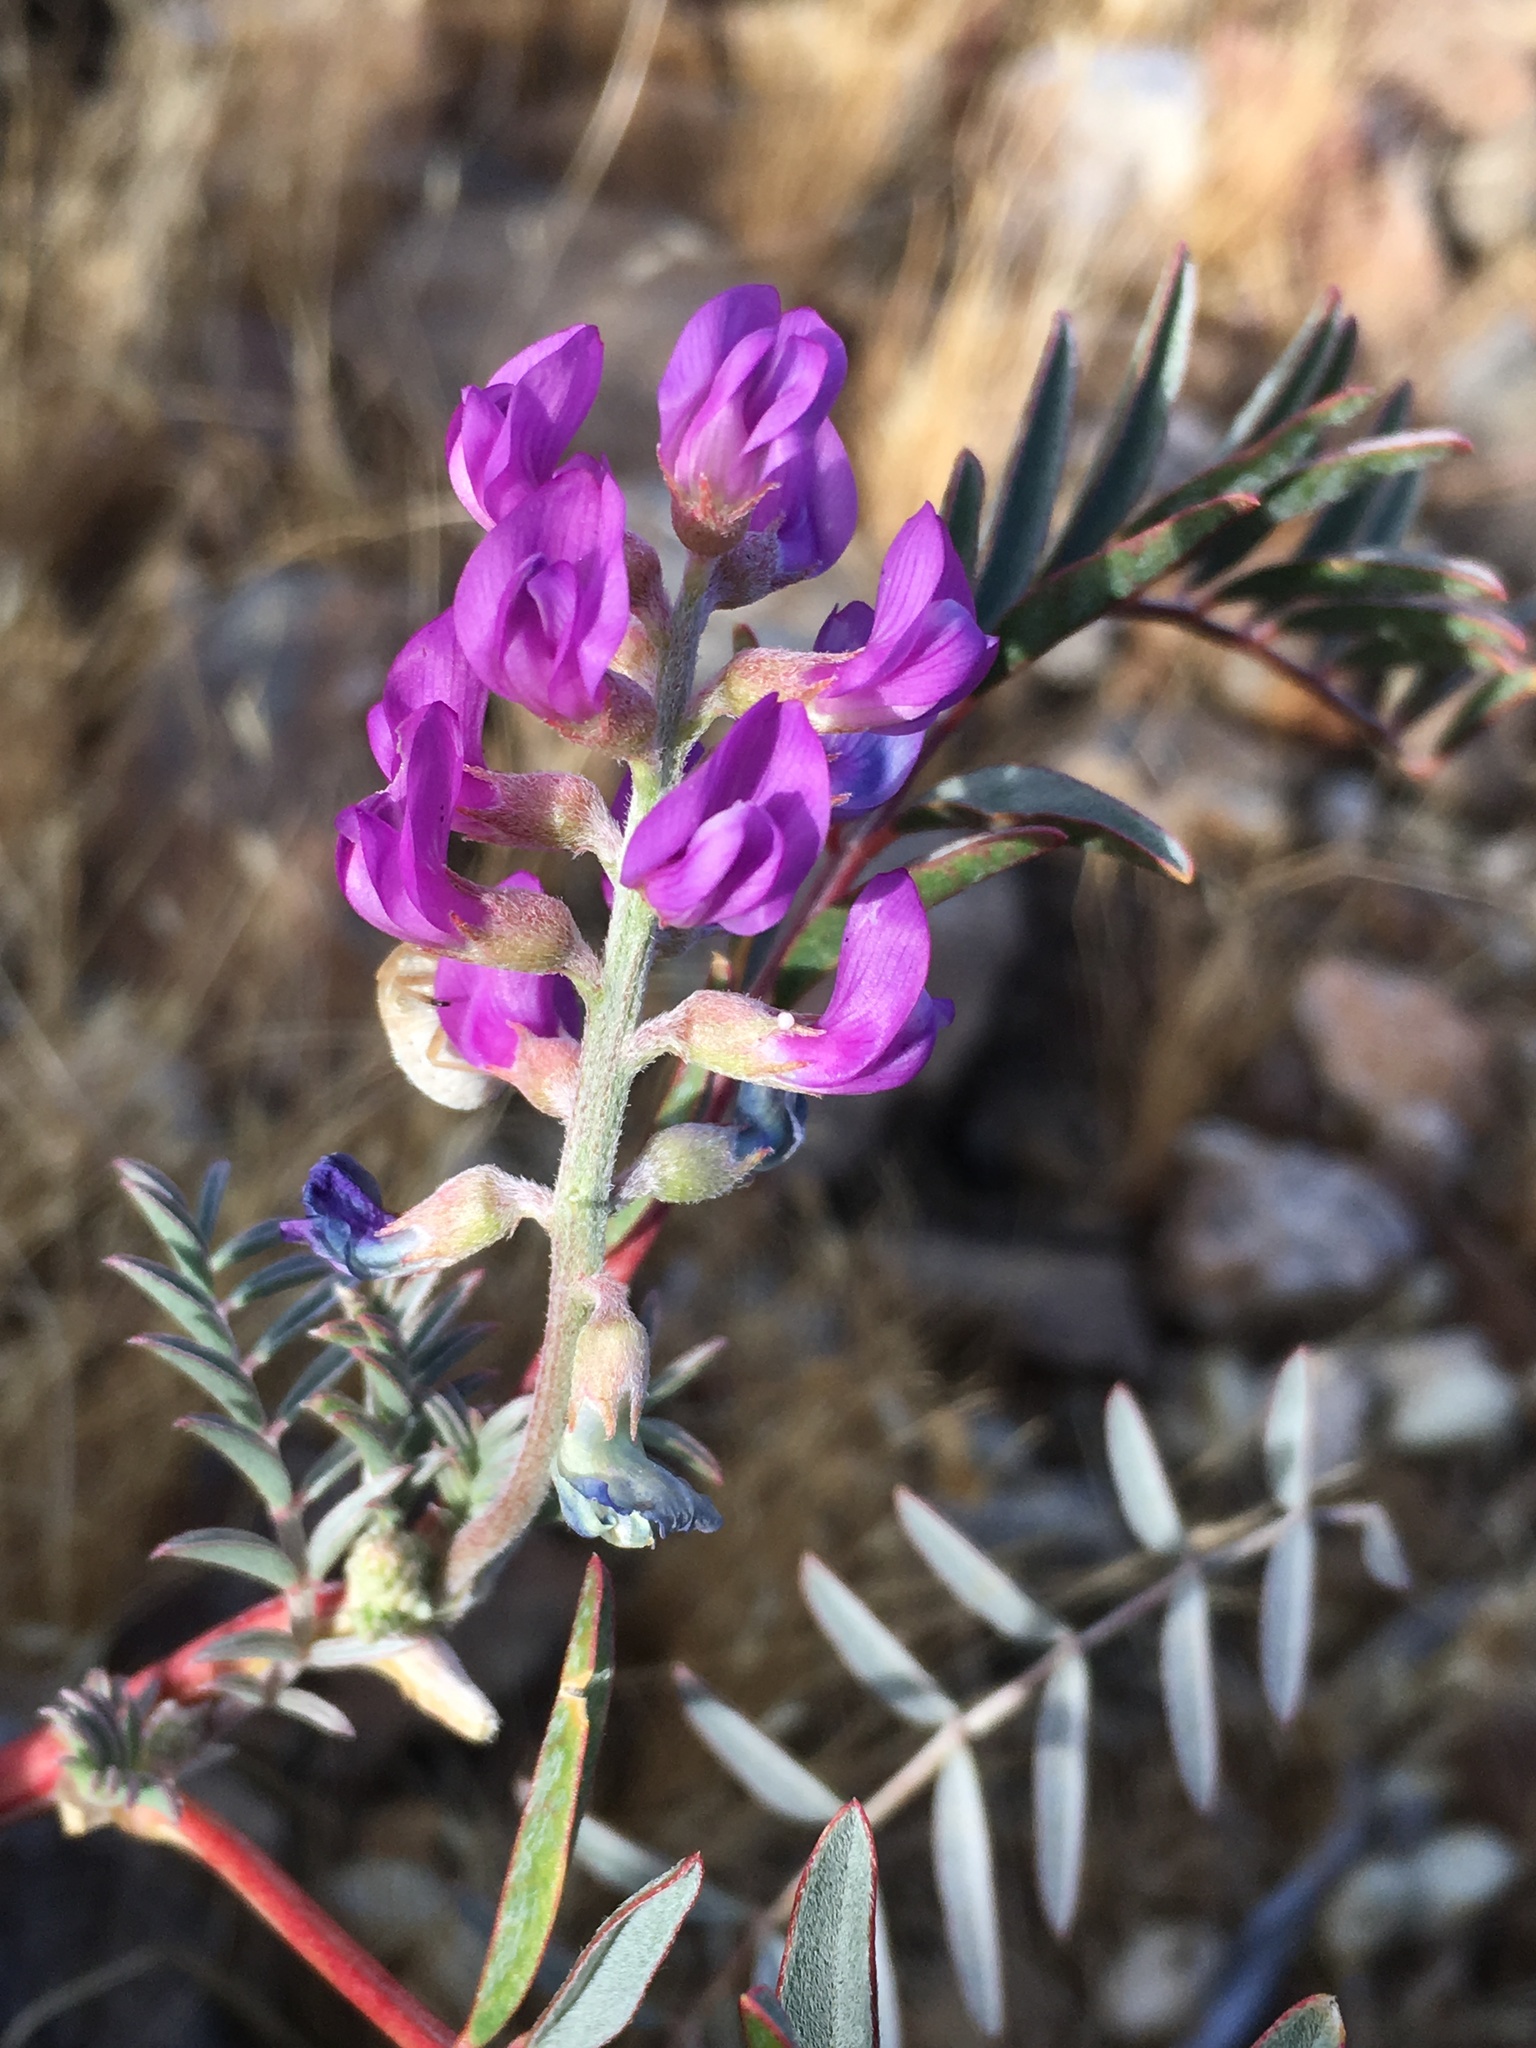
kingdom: Plantae
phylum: Tracheophyta
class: Magnoliopsida
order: Fabales
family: Fabaceae
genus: Astragalus
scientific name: Astragalus palmeri
